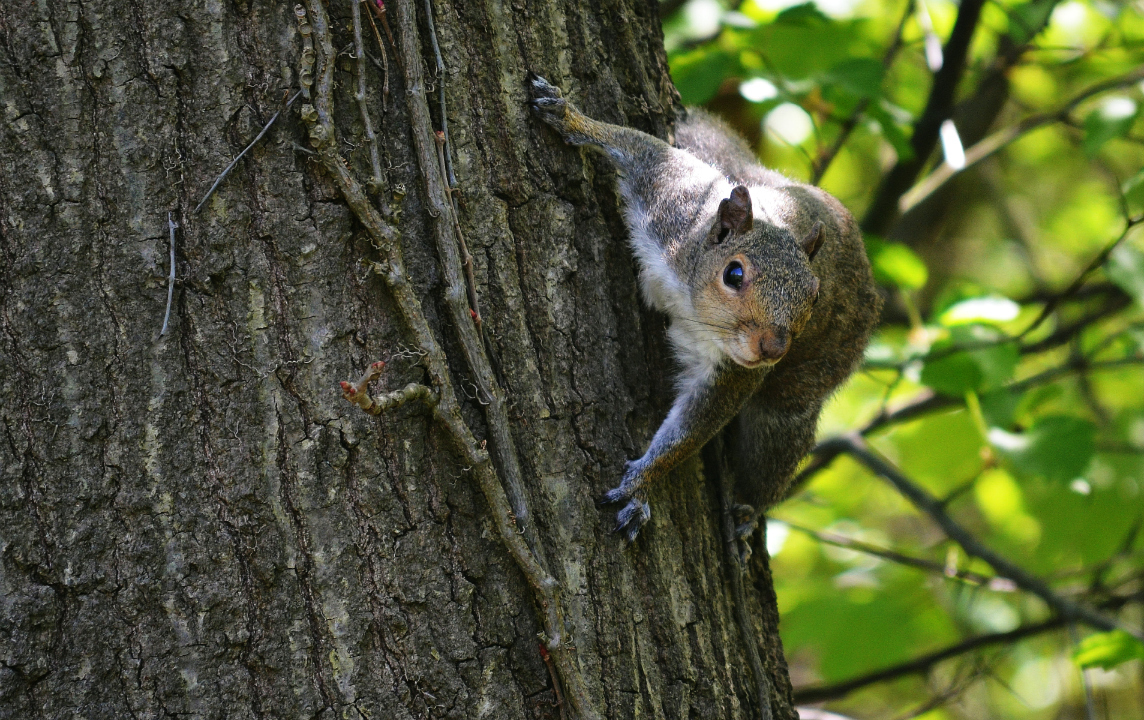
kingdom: Animalia
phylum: Chordata
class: Mammalia
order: Rodentia
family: Sciuridae
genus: Sciurus
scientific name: Sciurus carolinensis
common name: Eastern gray squirrel
